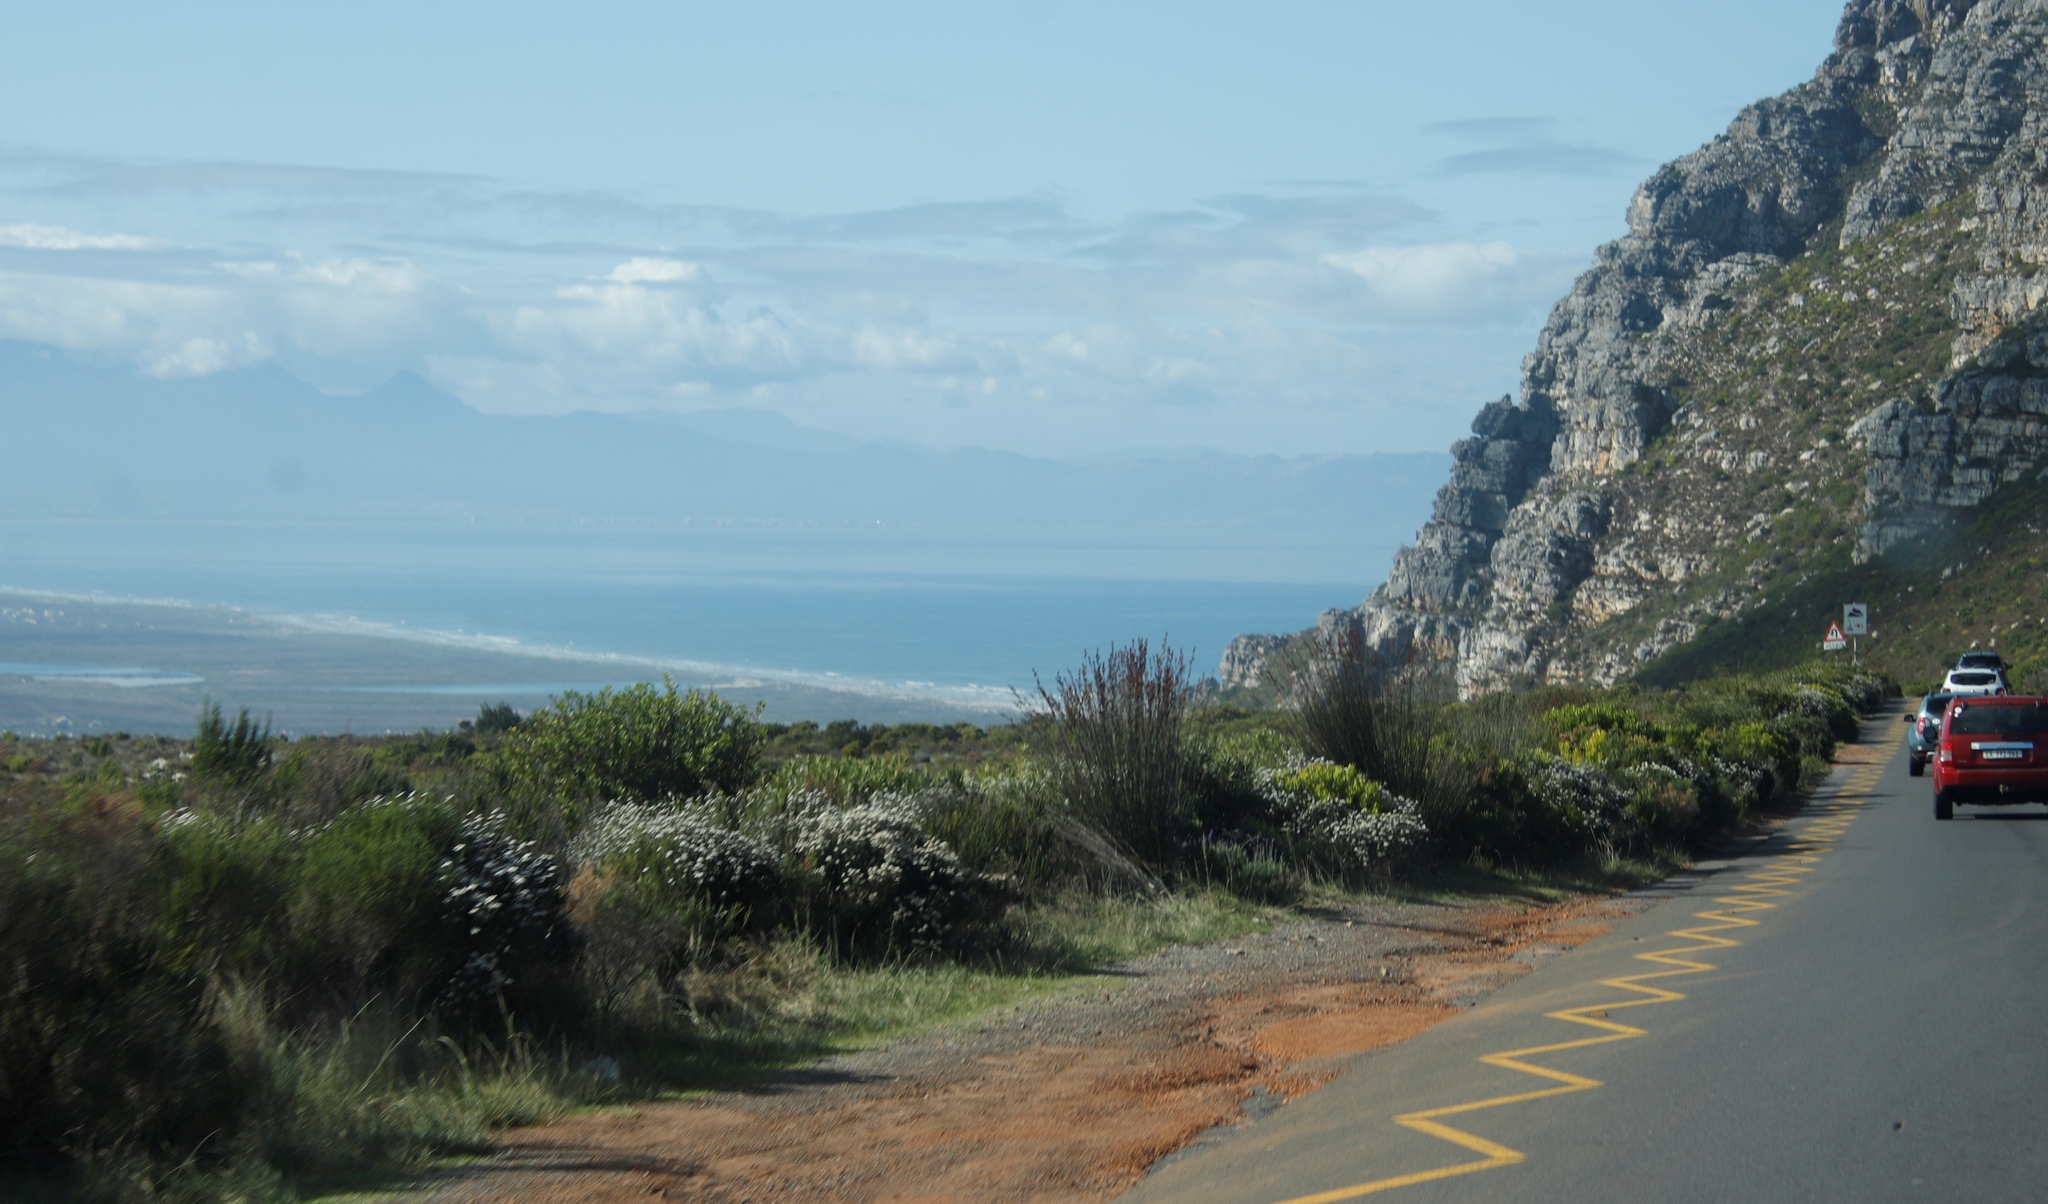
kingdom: Plantae
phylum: Tracheophyta
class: Liliopsida
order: Poales
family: Restionaceae
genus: Thamnochortus
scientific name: Thamnochortus insignis
